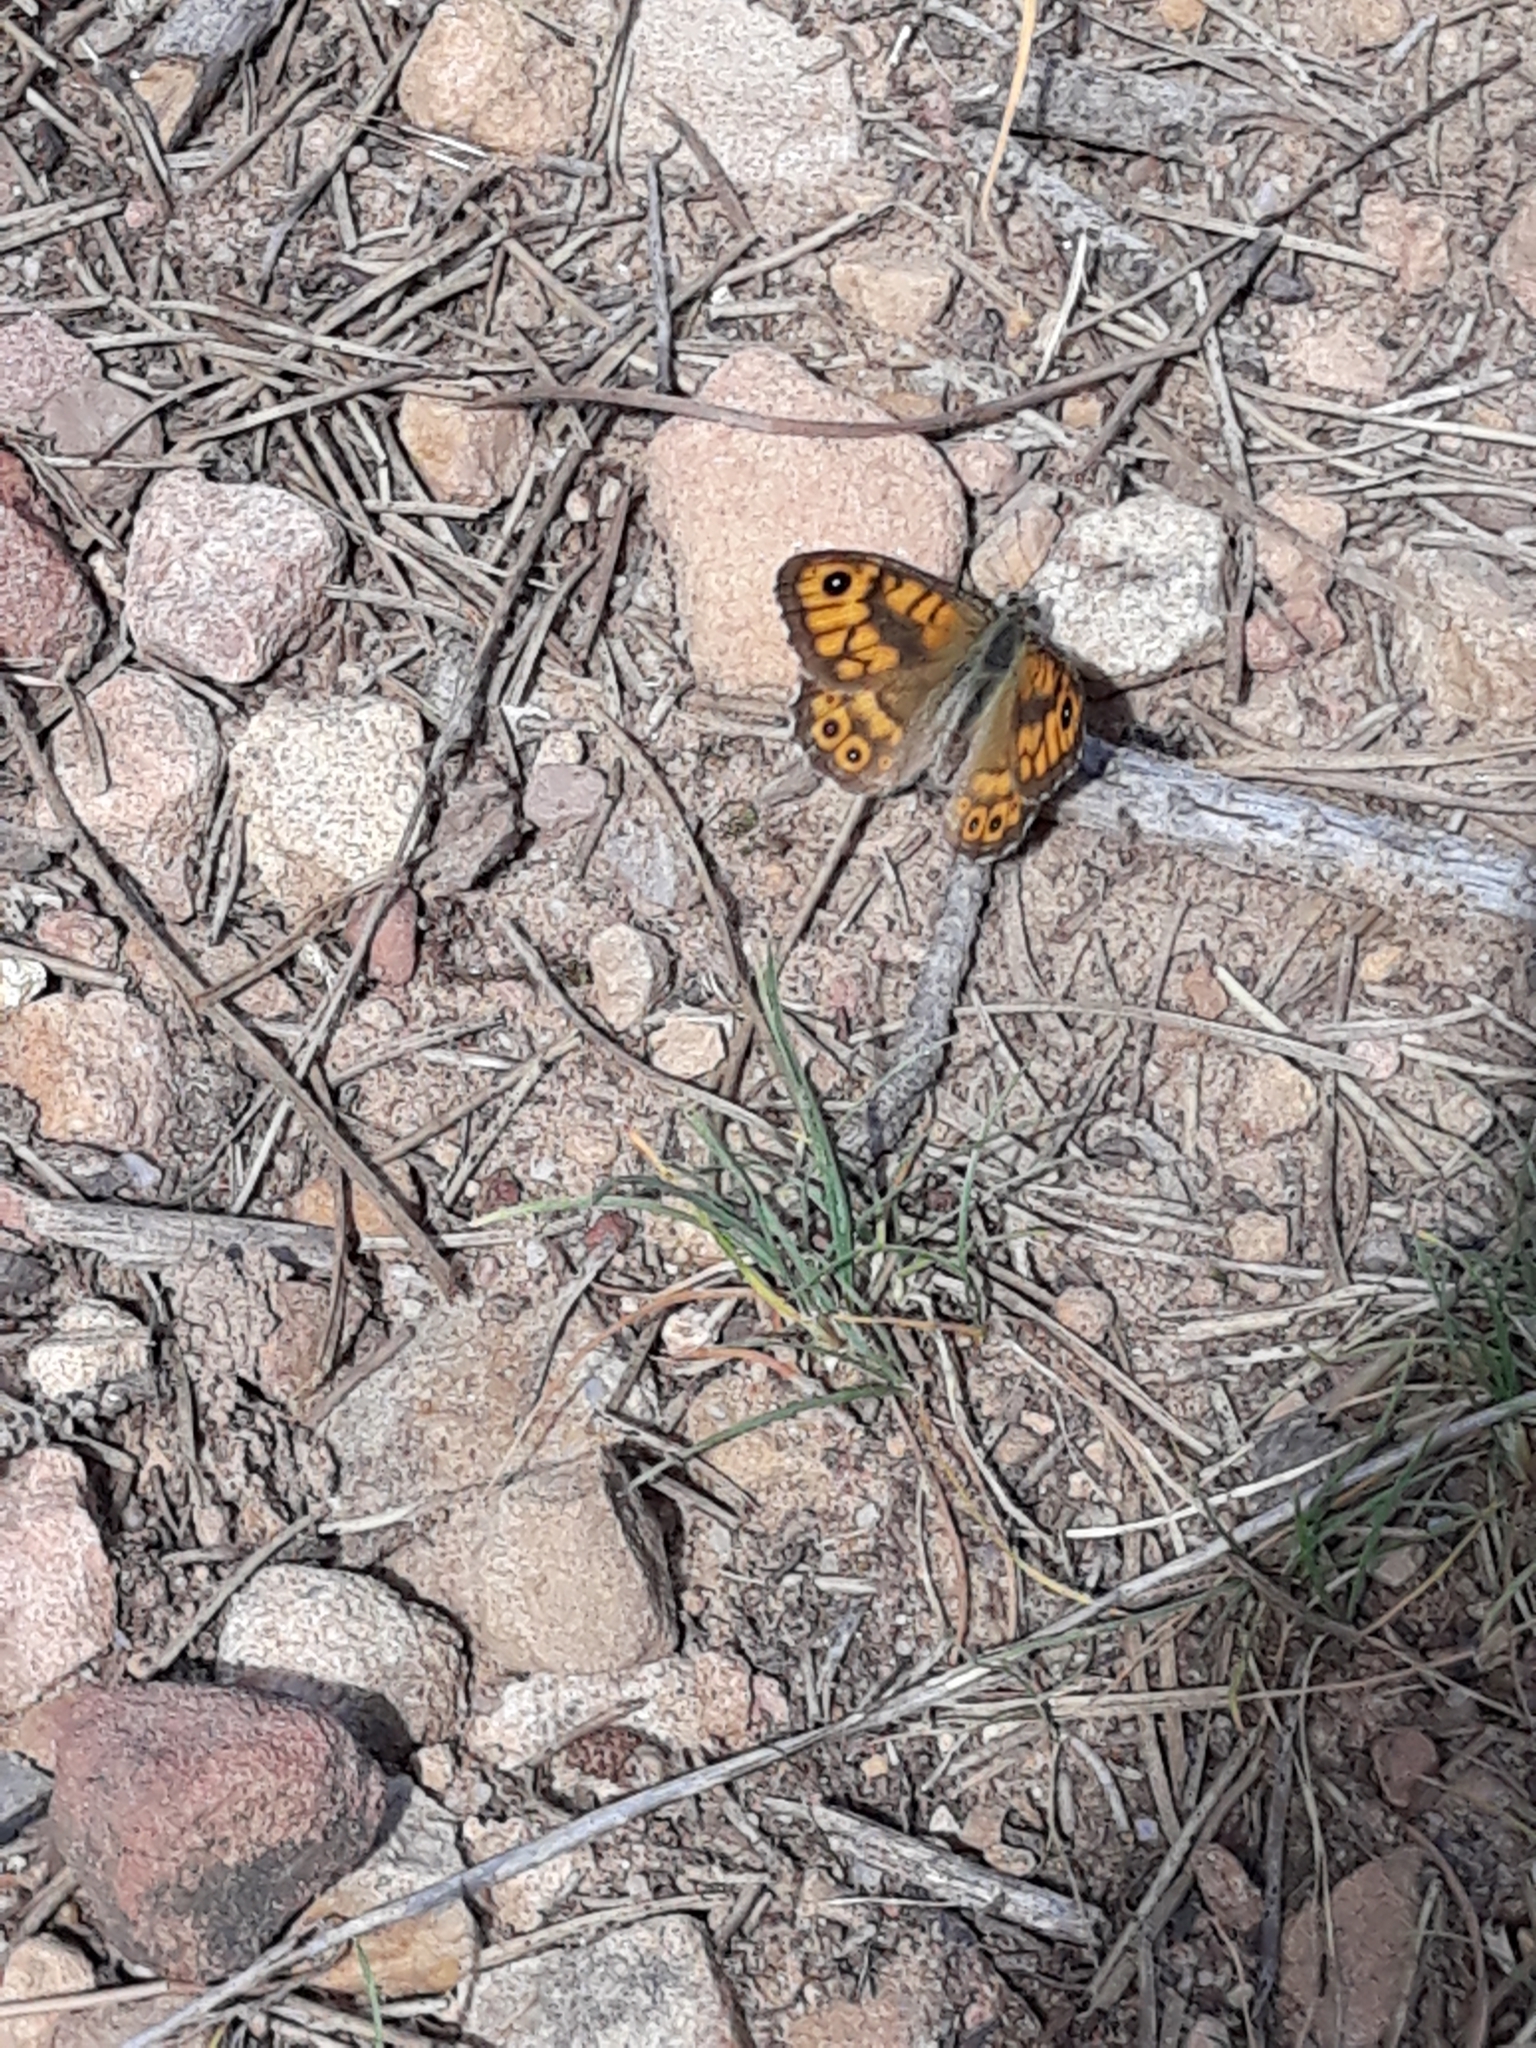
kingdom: Animalia
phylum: Arthropoda
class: Insecta
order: Lepidoptera
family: Nymphalidae
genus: Pararge
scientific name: Pararge Lasiommata megera
